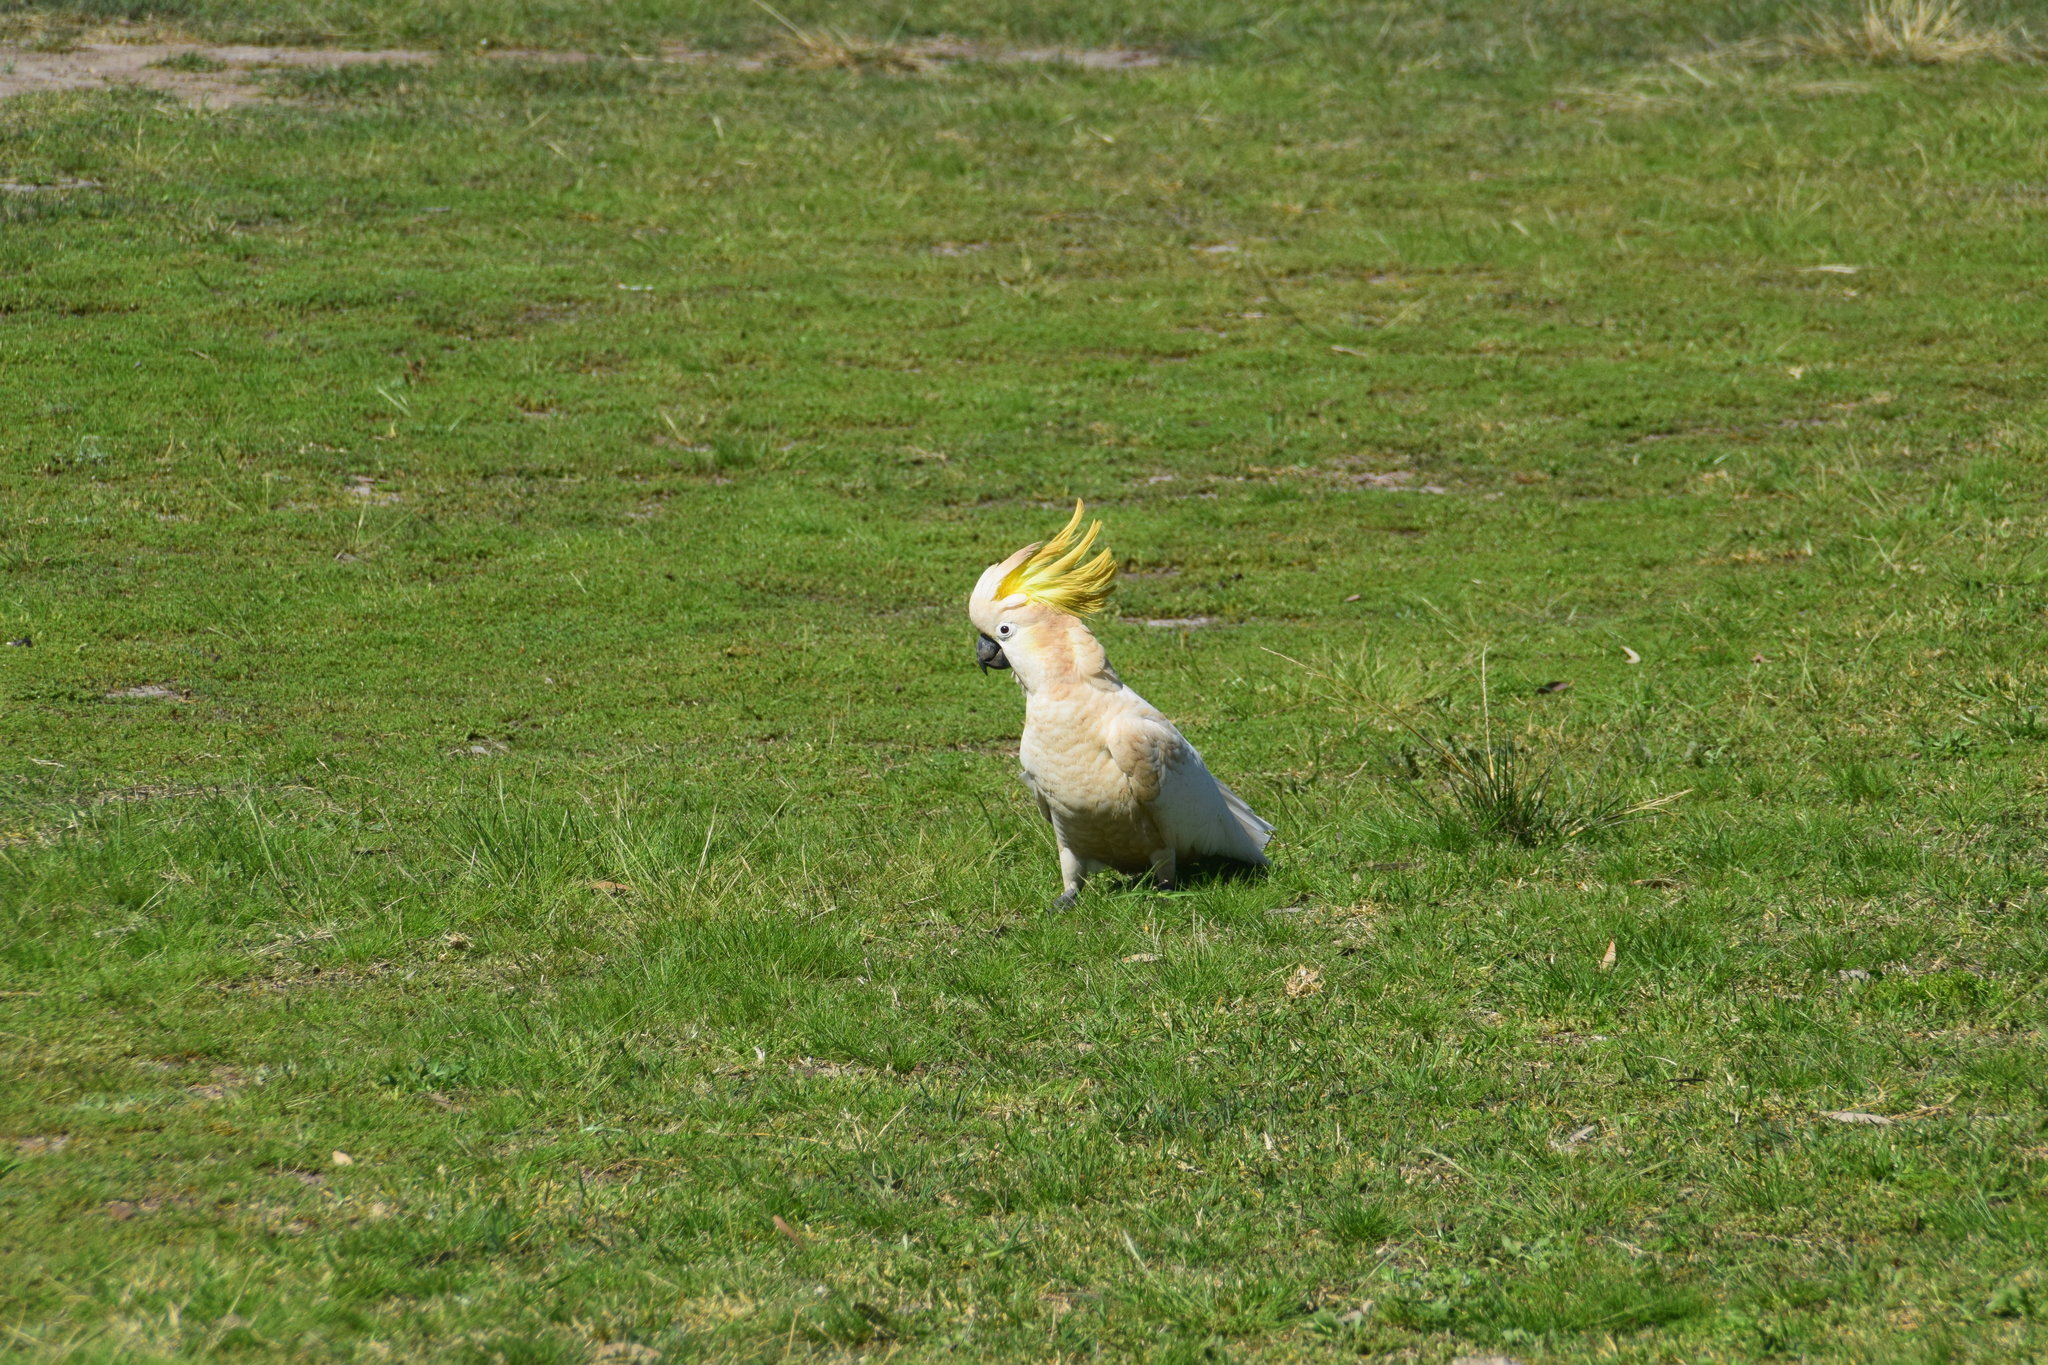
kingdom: Animalia
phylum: Chordata
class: Aves
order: Psittaciformes
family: Psittacidae
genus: Cacatua
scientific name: Cacatua galerita
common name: Sulphur-crested cockatoo
